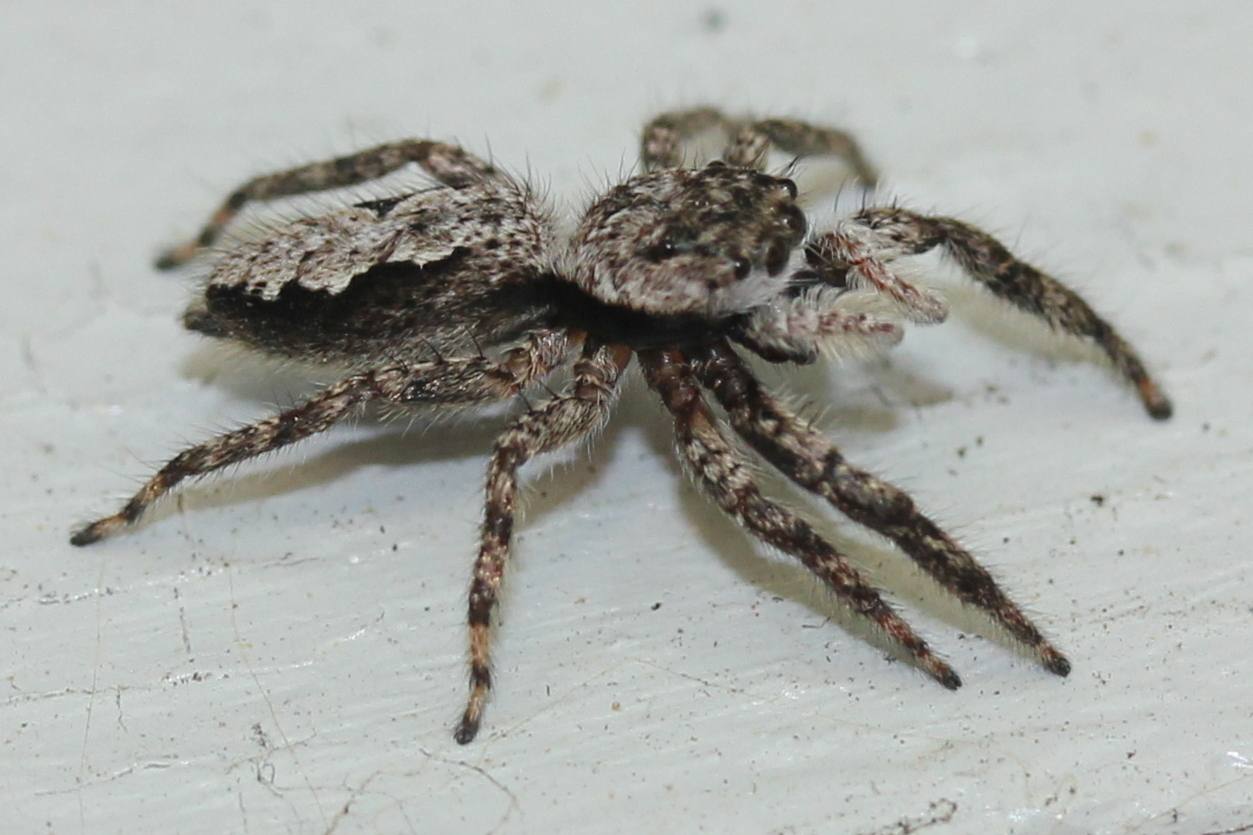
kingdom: Animalia
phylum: Arthropoda
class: Arachnida
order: Araneae
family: Salticidae
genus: Platycryptus
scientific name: Platycryptus undatus
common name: Tan jumping spider
